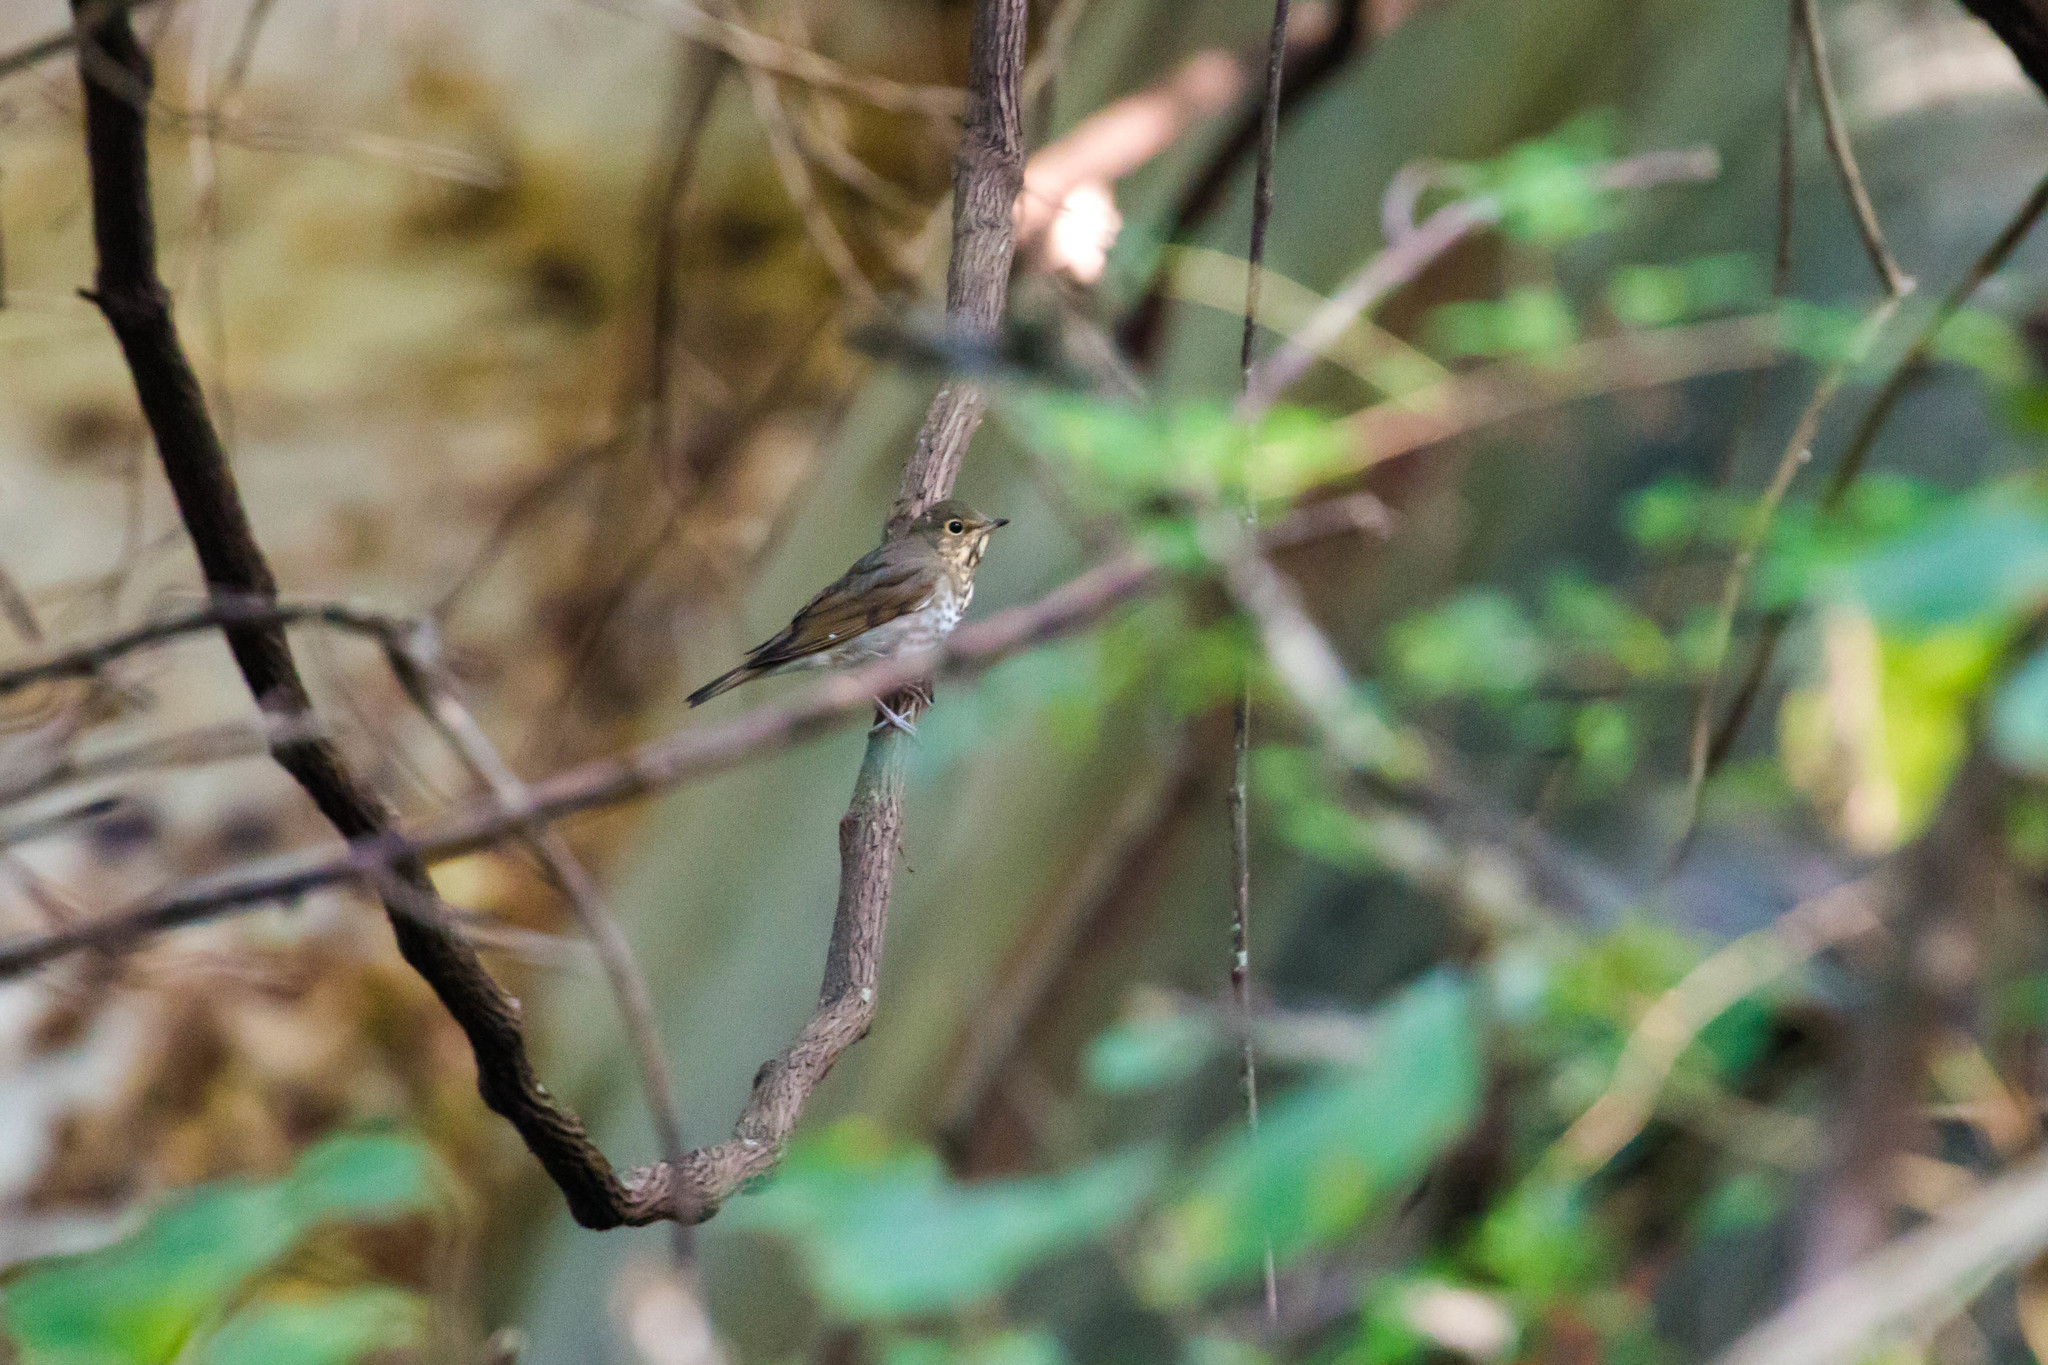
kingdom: Animalia
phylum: Chordata
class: Aves
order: Passeriformes
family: Turdidae
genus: Catharus
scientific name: Catharus ustulatus
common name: Swainson's thrush
